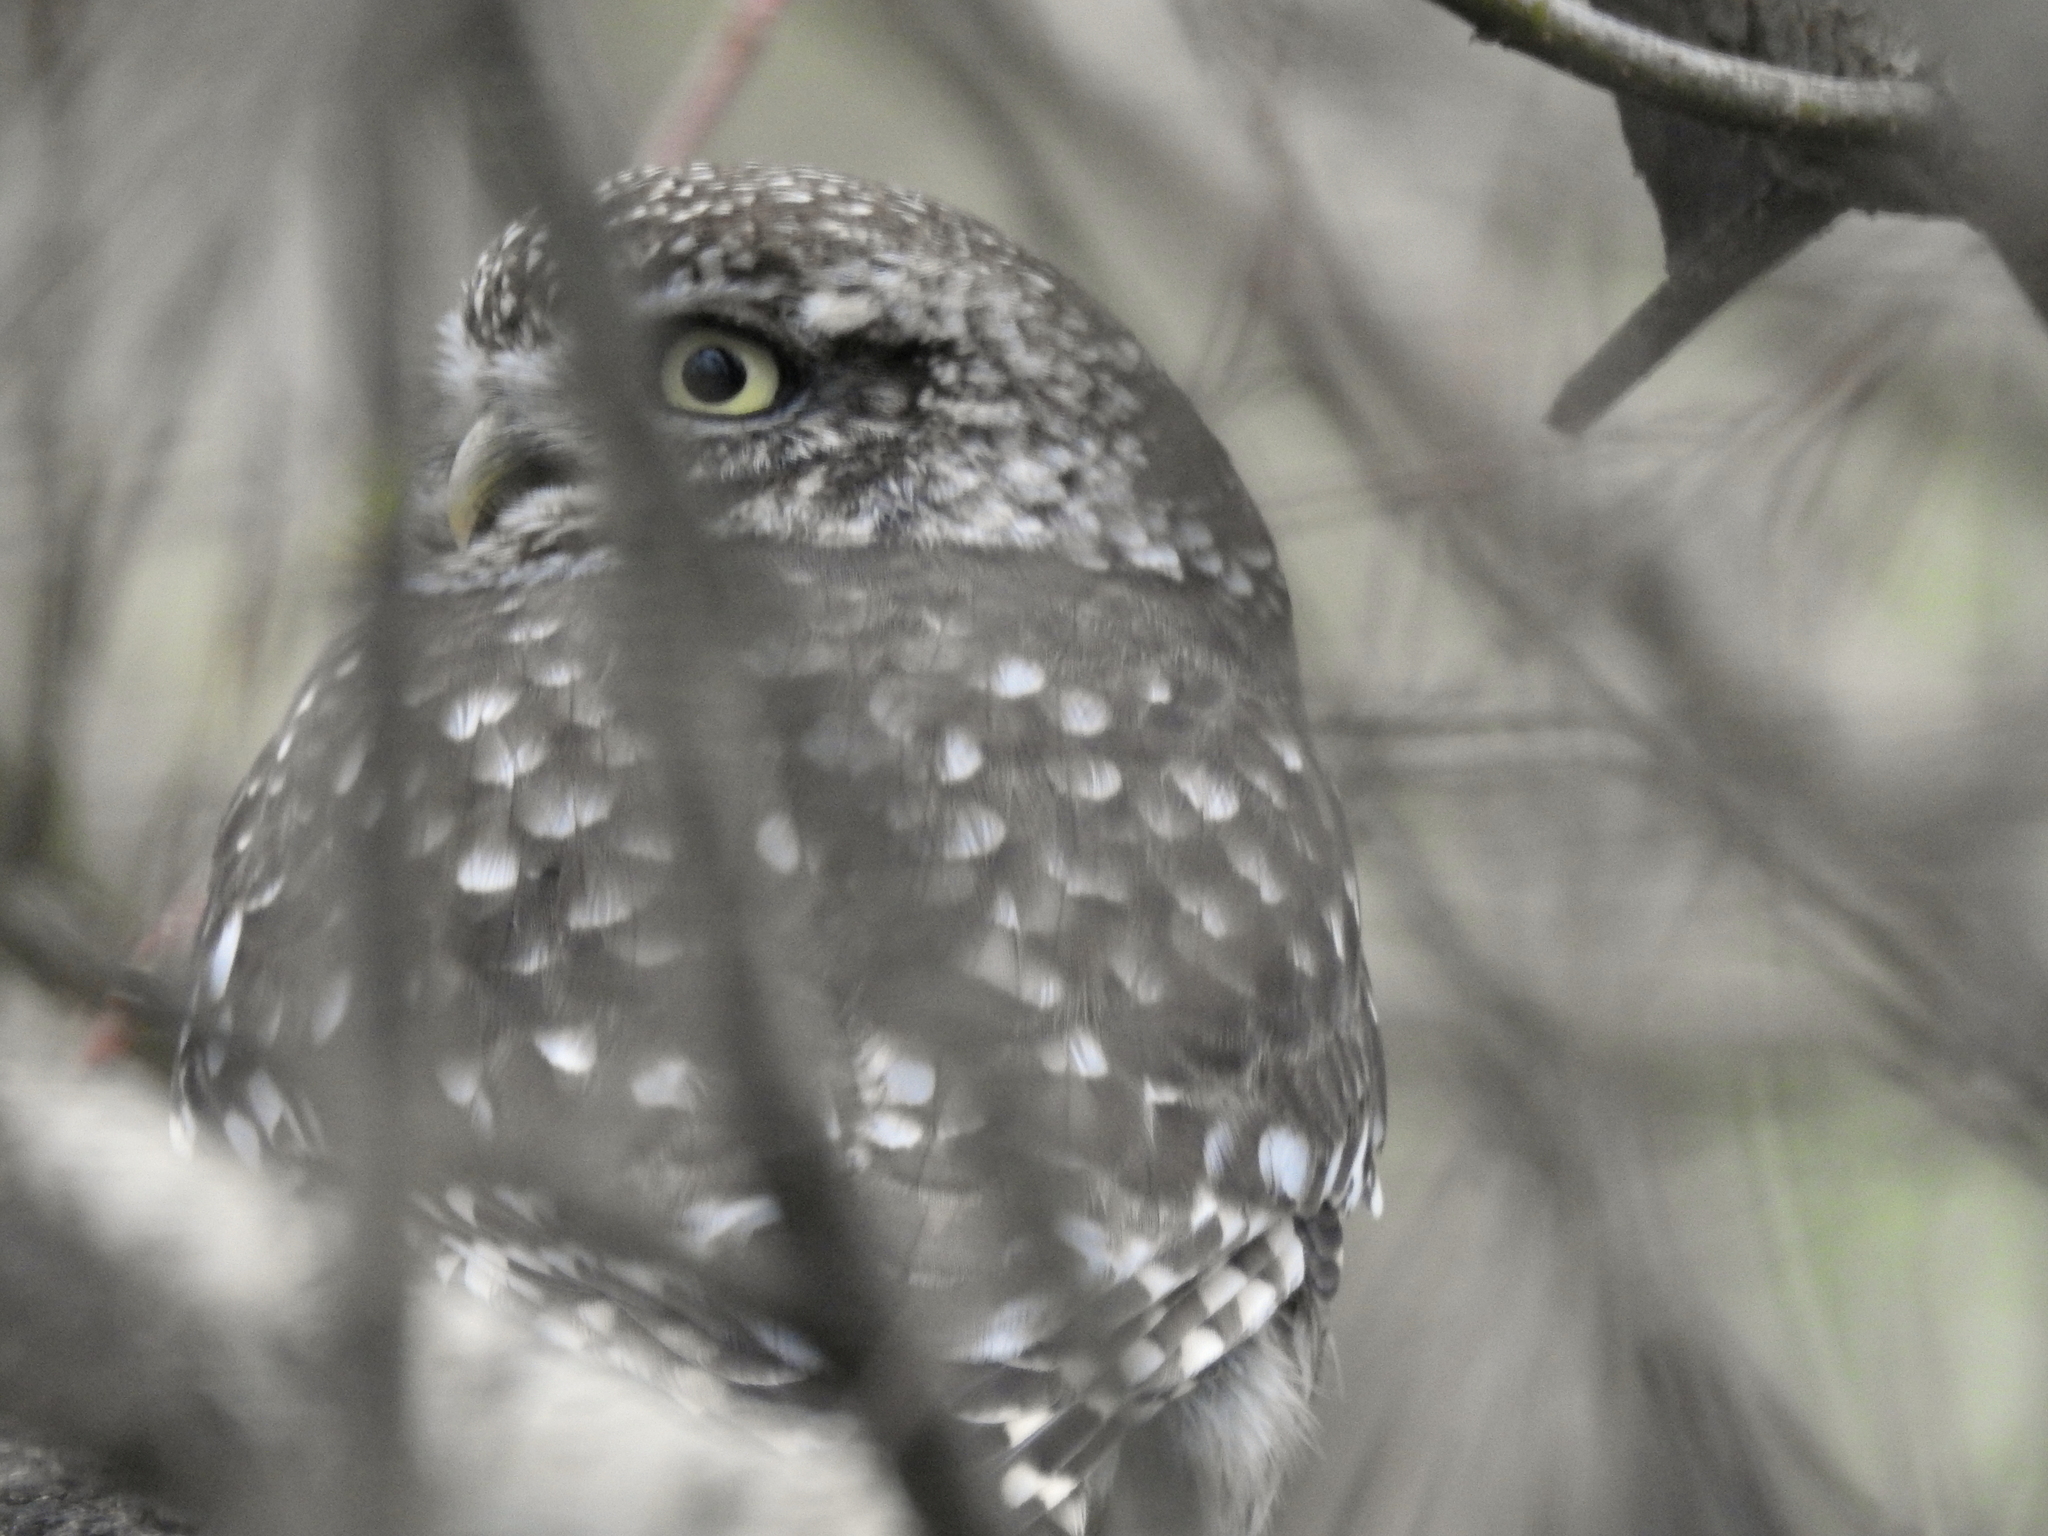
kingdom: Animalia
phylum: Chordata
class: Aves
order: Strigiformes
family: Strigidae
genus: Athene
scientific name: Athene noctua
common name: Little owl
